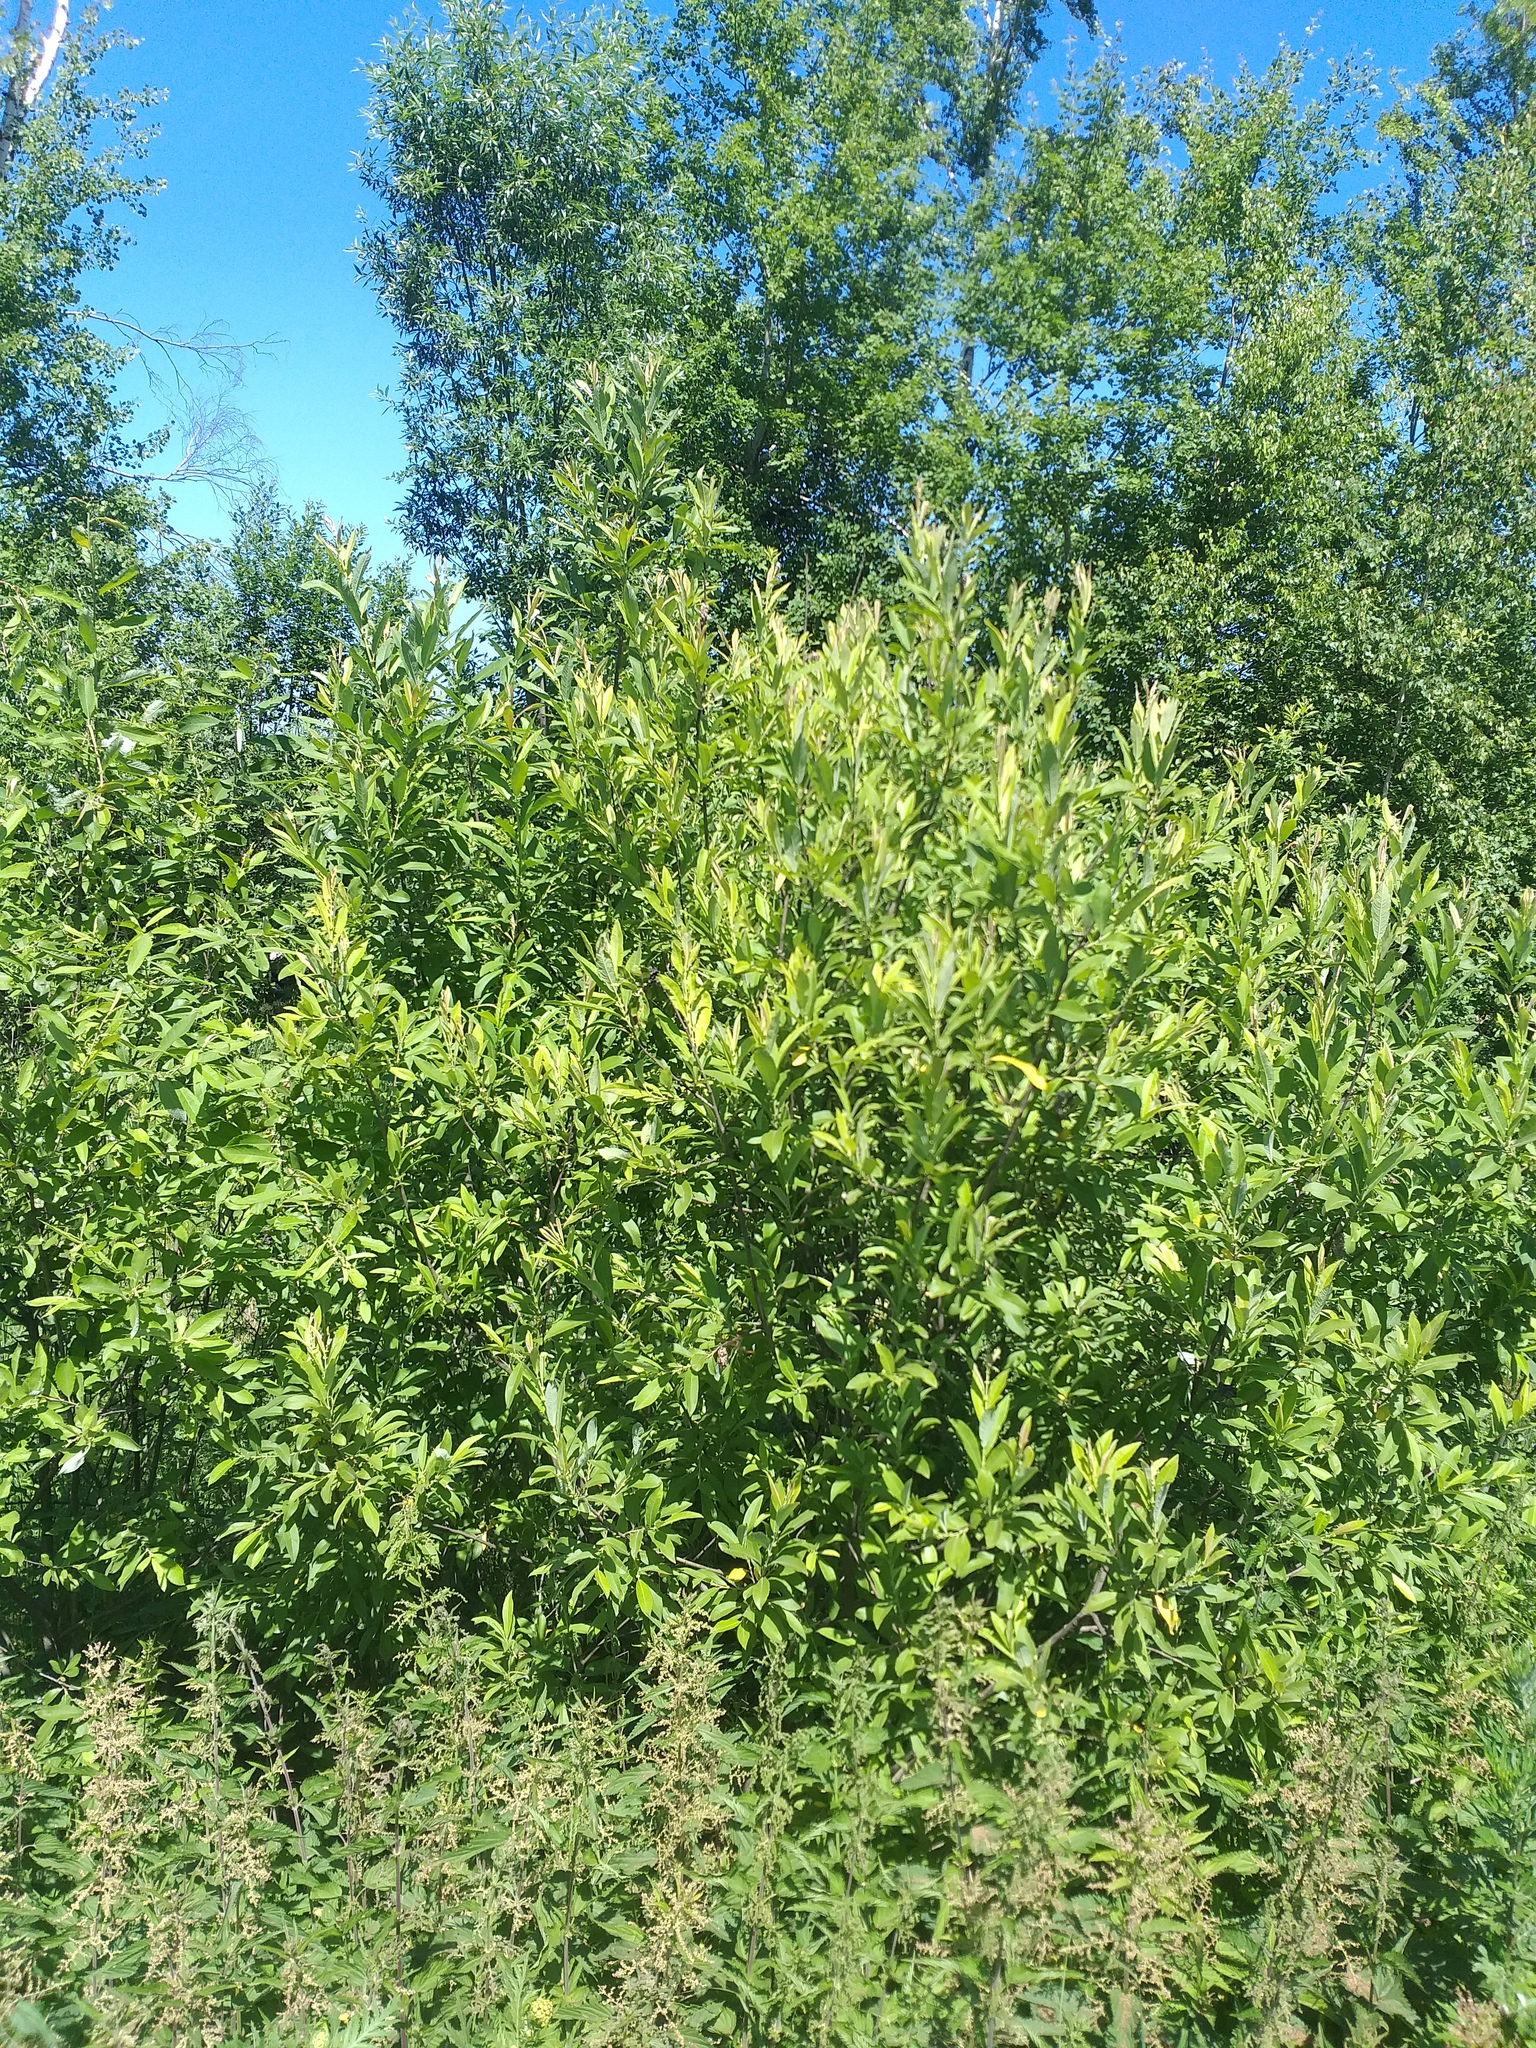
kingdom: Plantae
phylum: Tracheophyta
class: Magnoliopsida
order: Malpighiales
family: Salicaceae
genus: Salix
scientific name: Salix cinerea
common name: Common sallow
